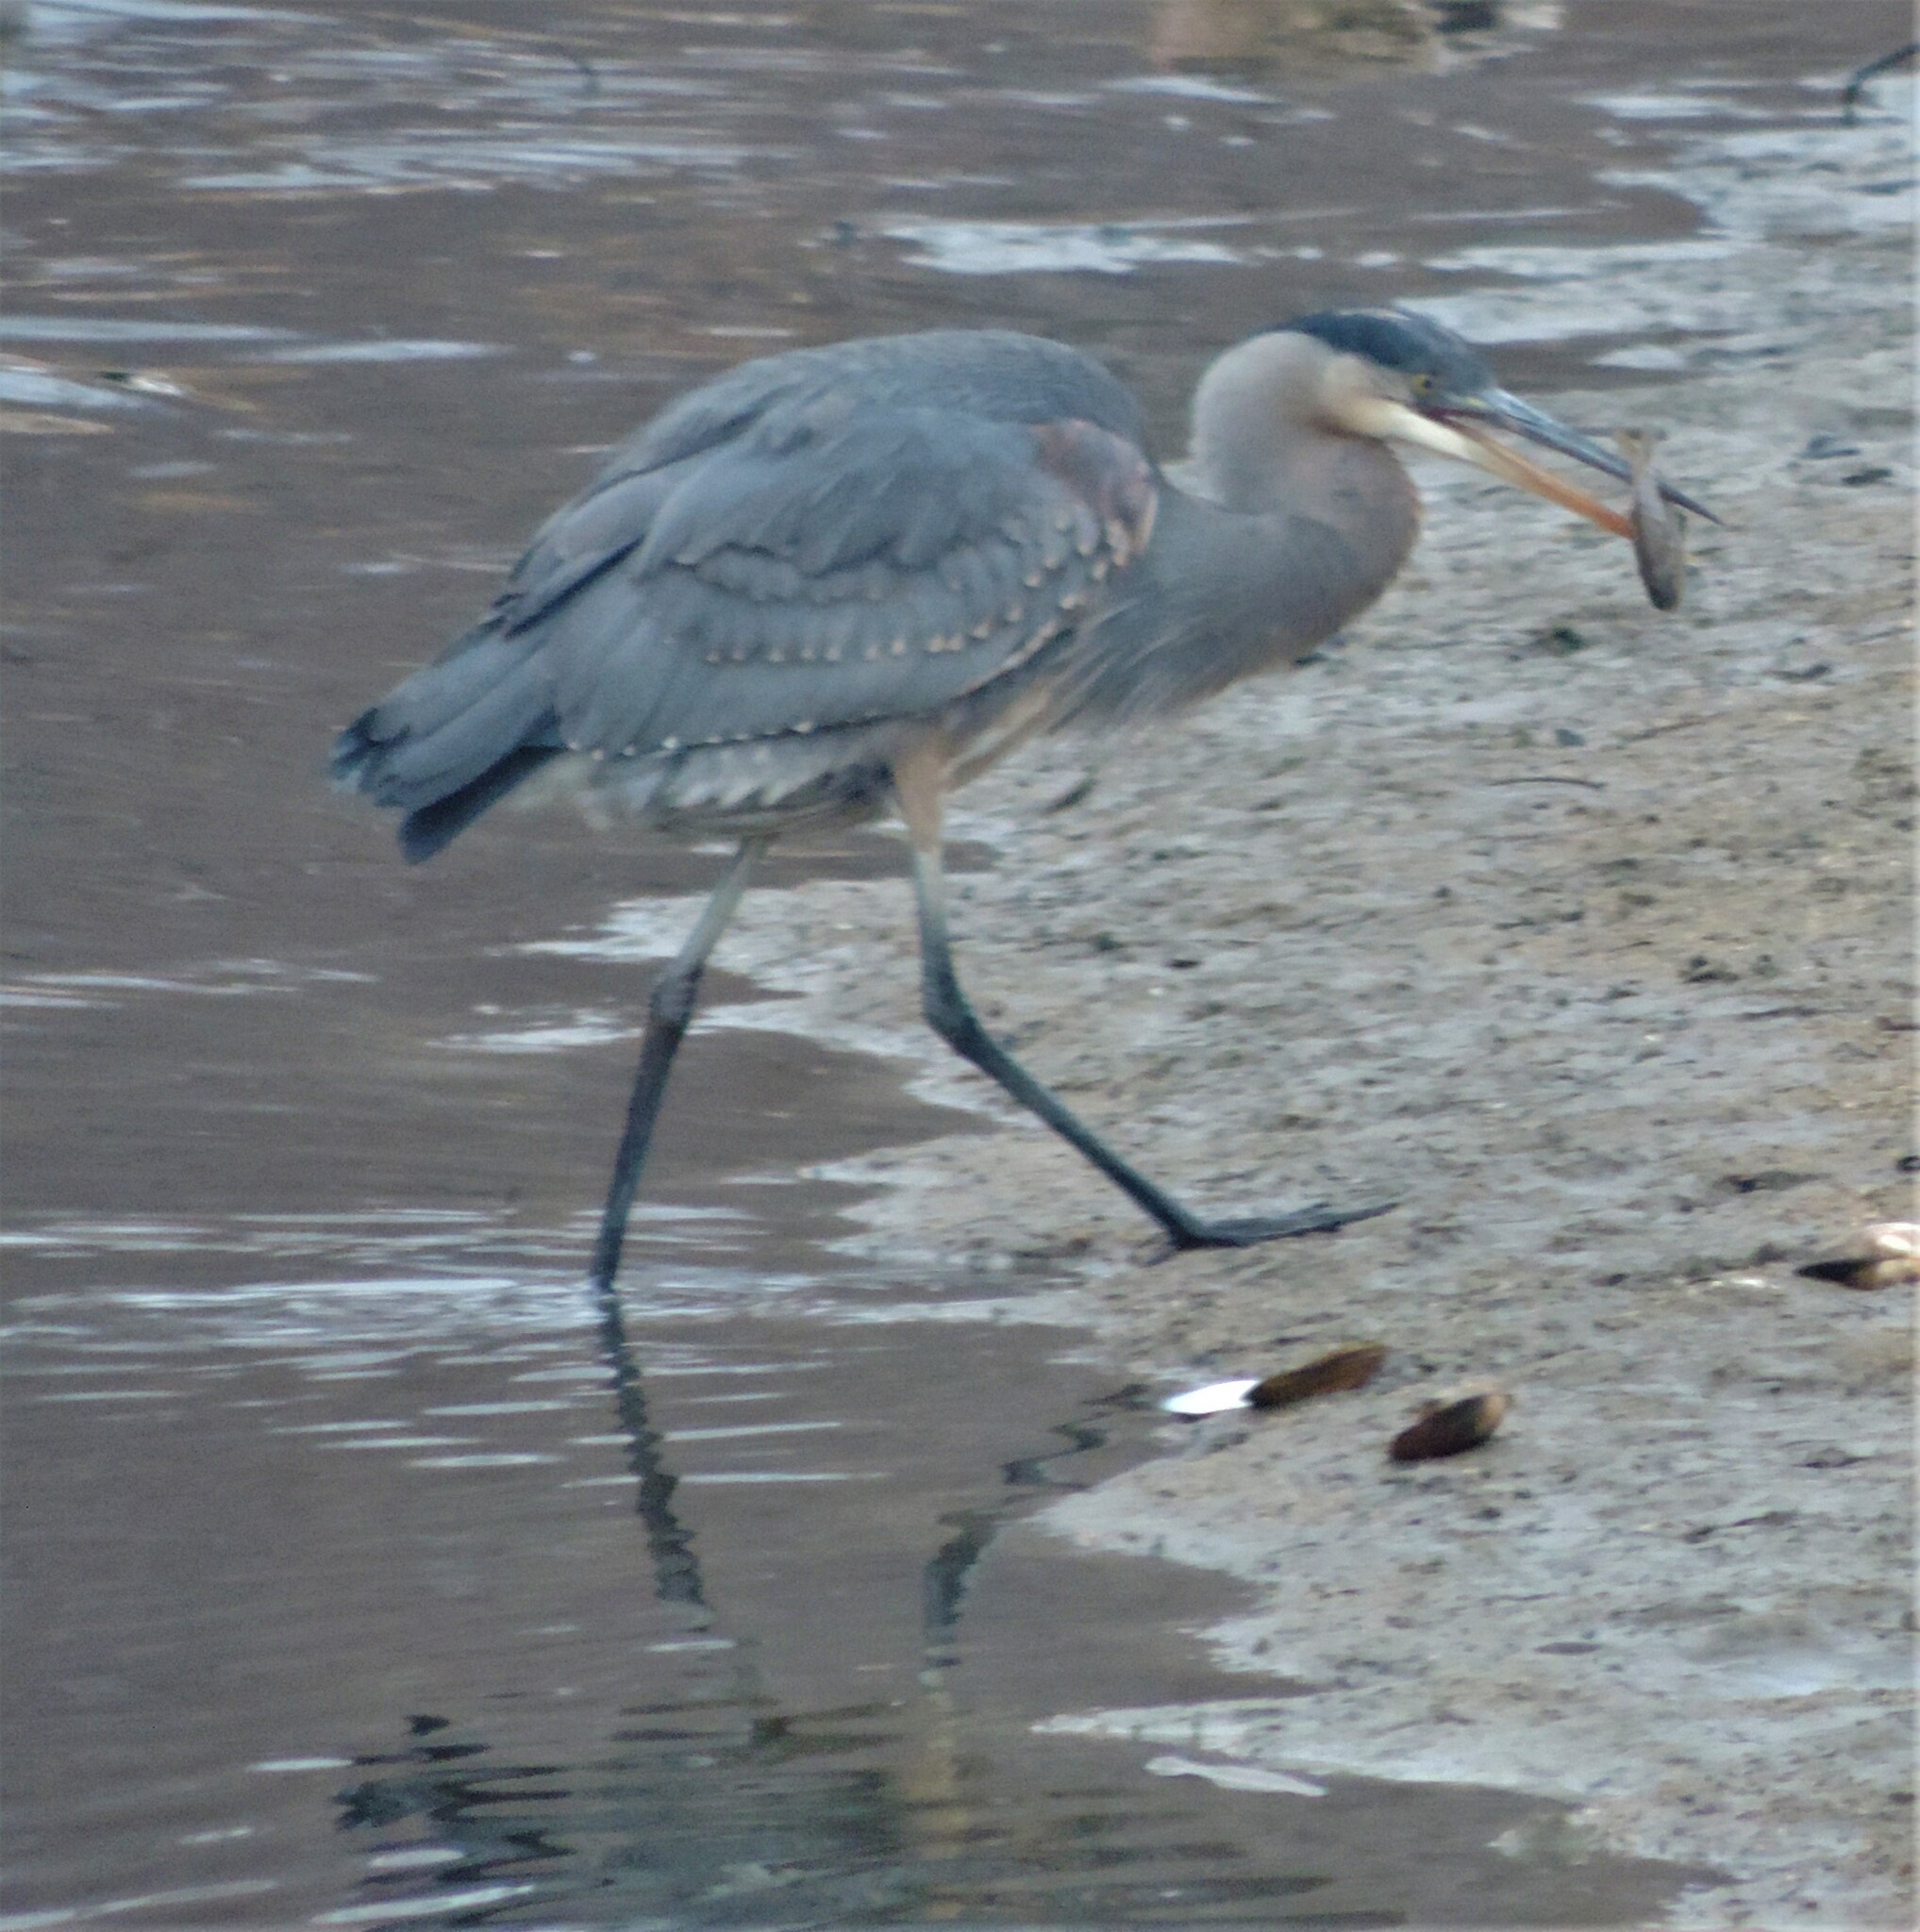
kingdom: Animalia
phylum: Chordata
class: Aves
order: Pelecaniformes
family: Ardeidae
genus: Ardea
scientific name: Ardea herodias
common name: Great blue heron
